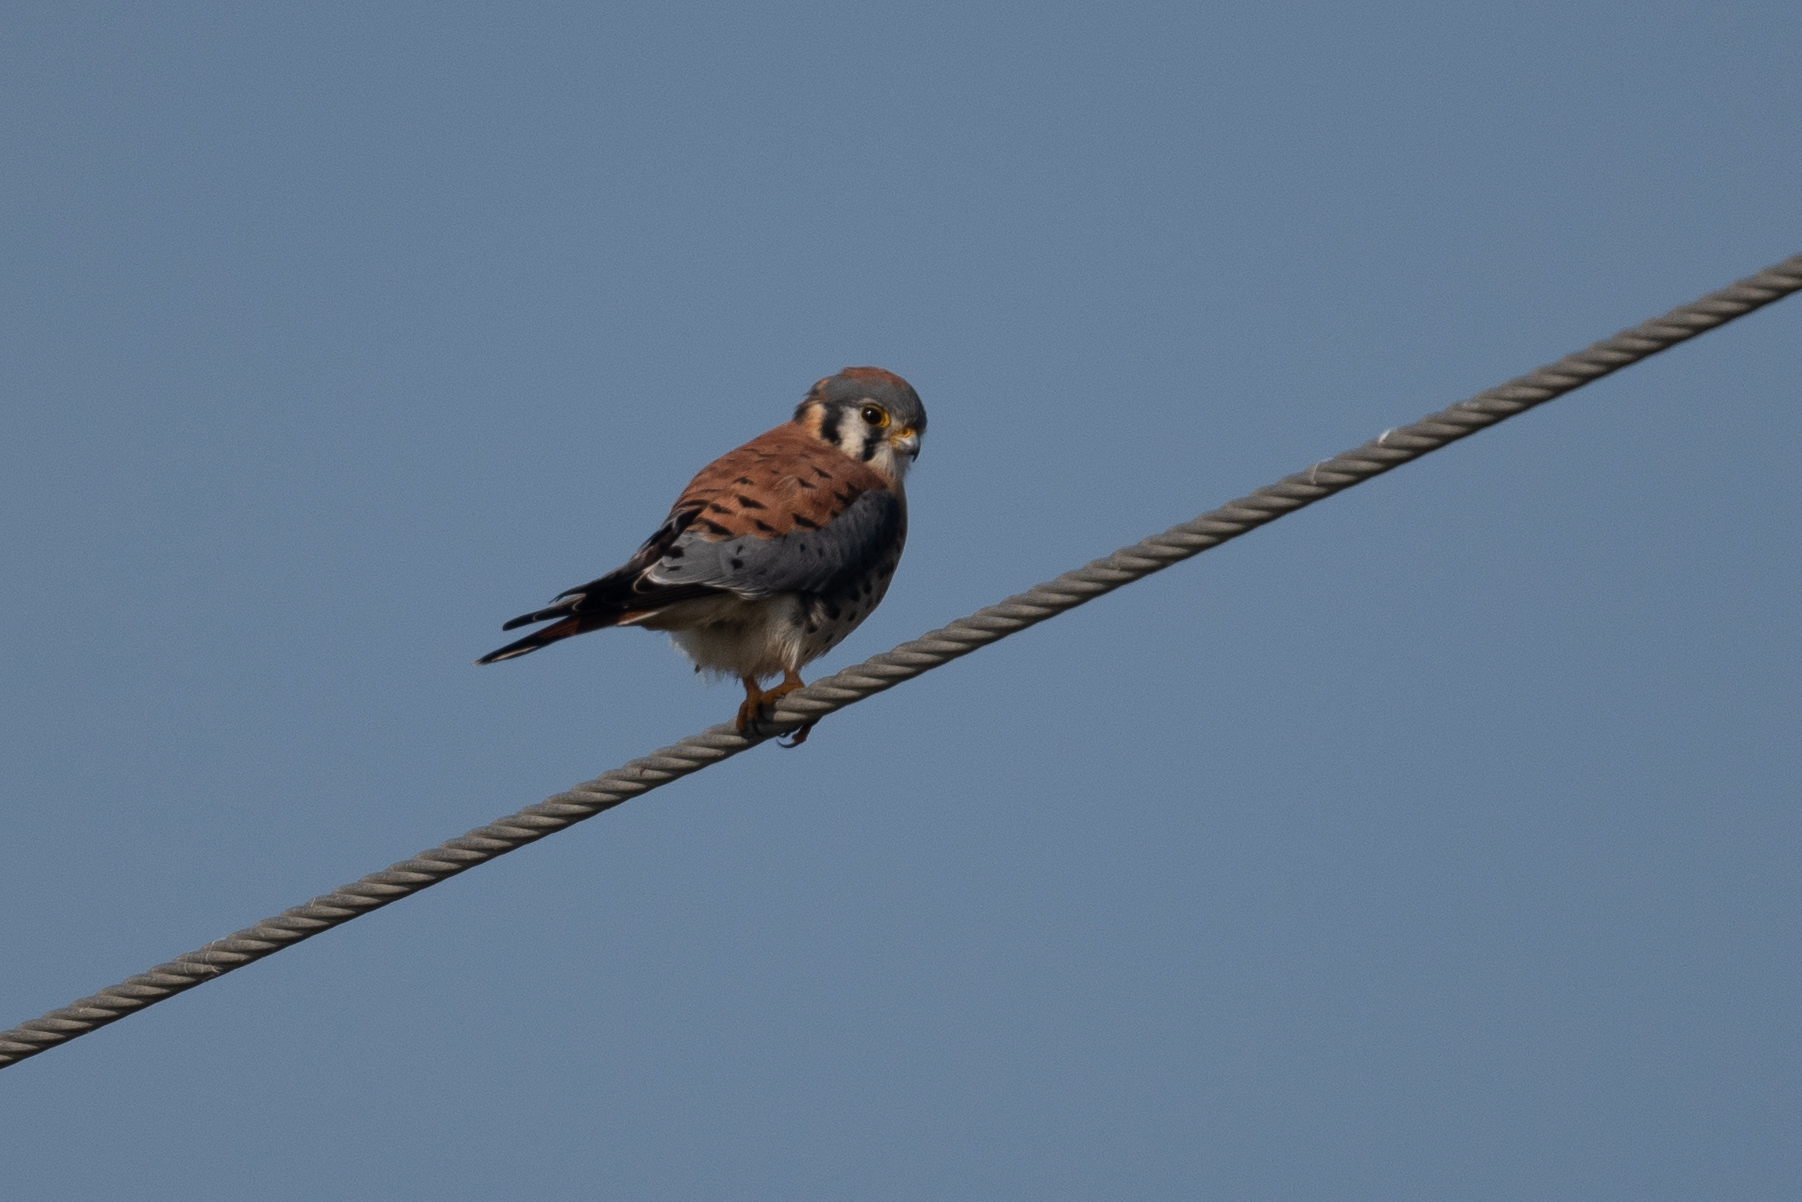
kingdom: Animalia
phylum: Chordata
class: Aves
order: Falconiformes
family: Falconidae
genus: Falco
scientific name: Falco sparverius
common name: American kestrel
